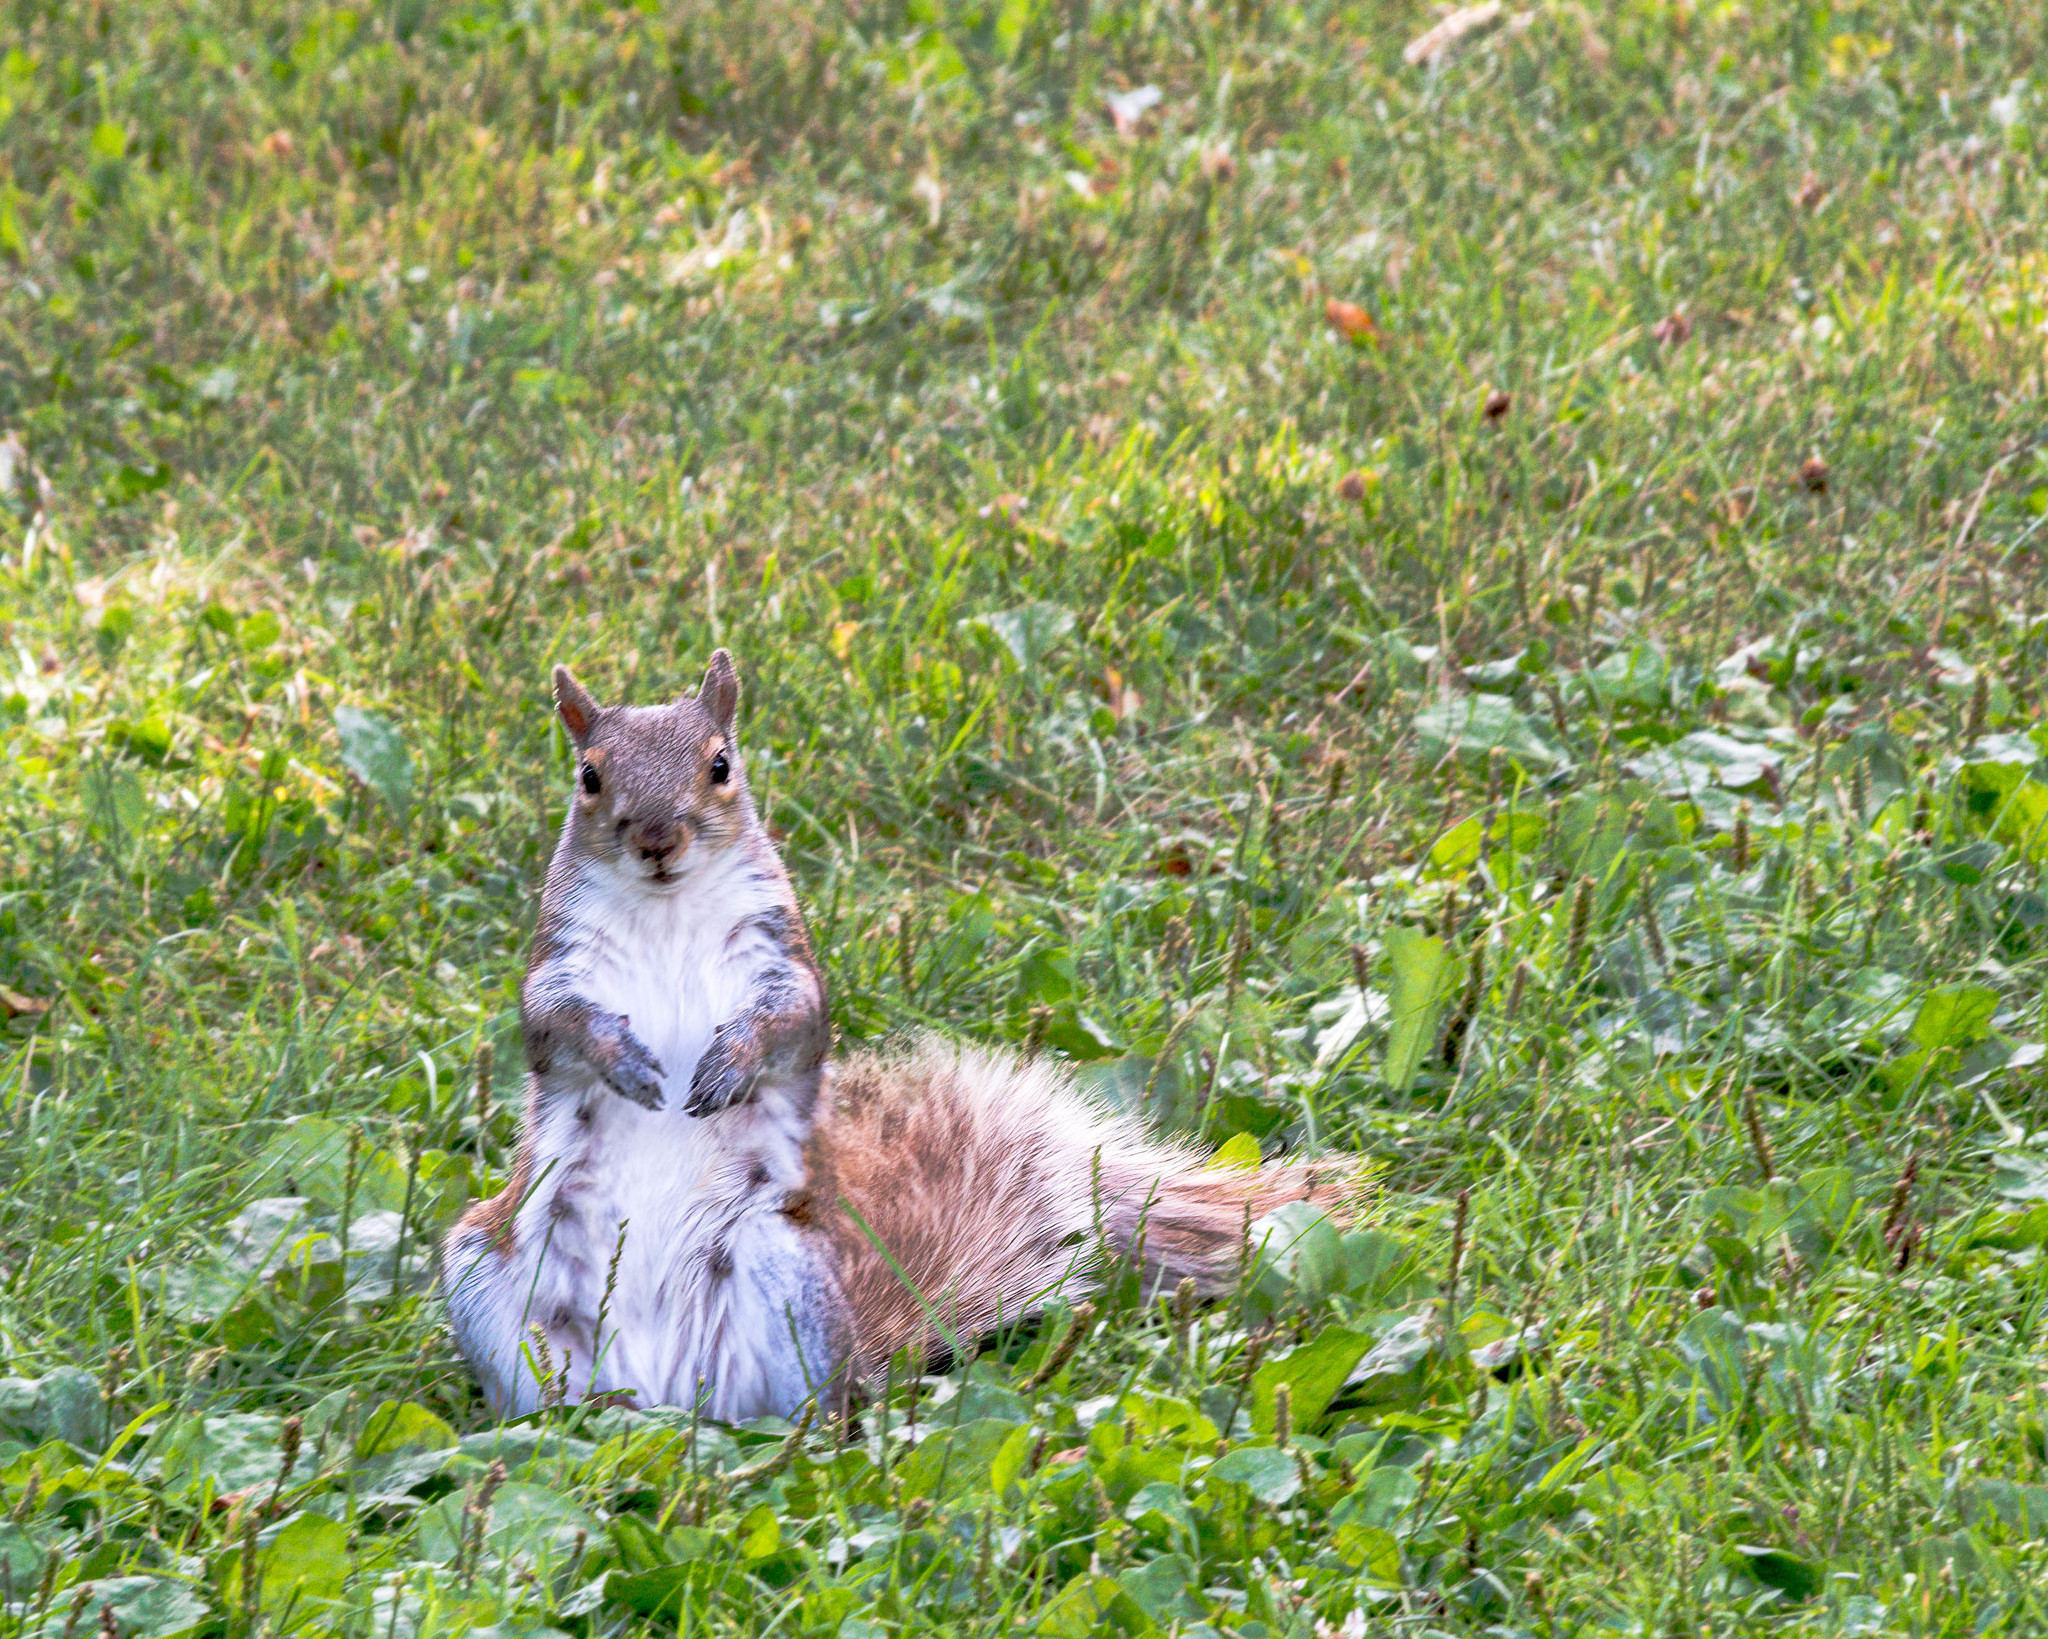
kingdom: Animalia
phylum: Chordata
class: Mammalia
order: Rodentia
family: Sciuridae
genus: Sciurus
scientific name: Sciurus carolinensis
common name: Eastern gray squirrel
